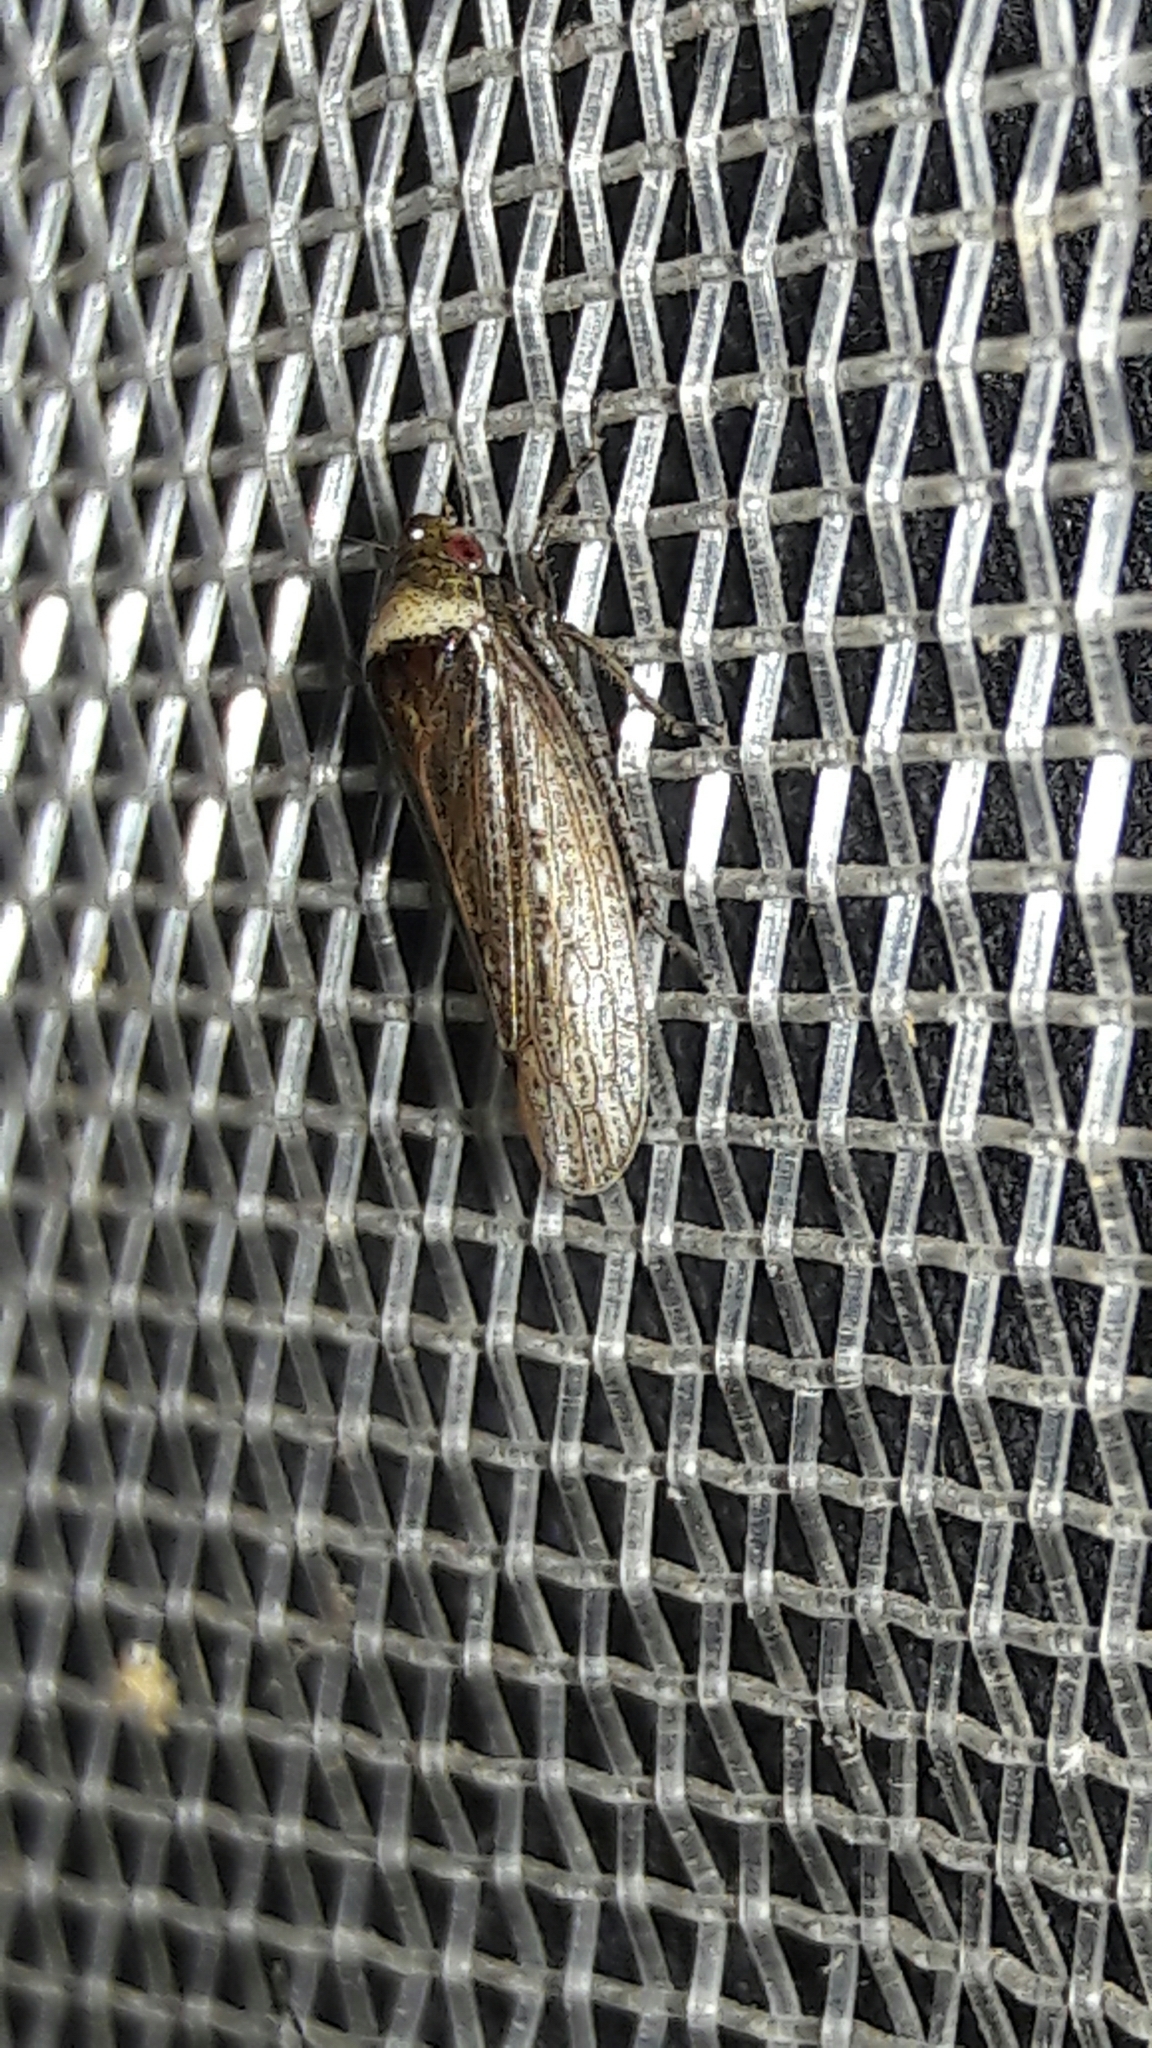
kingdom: Animalia
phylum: Arthropoda
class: Insecta
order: Hemiptera
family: Cicadellidae
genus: Sordana
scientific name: Sordana sordida
